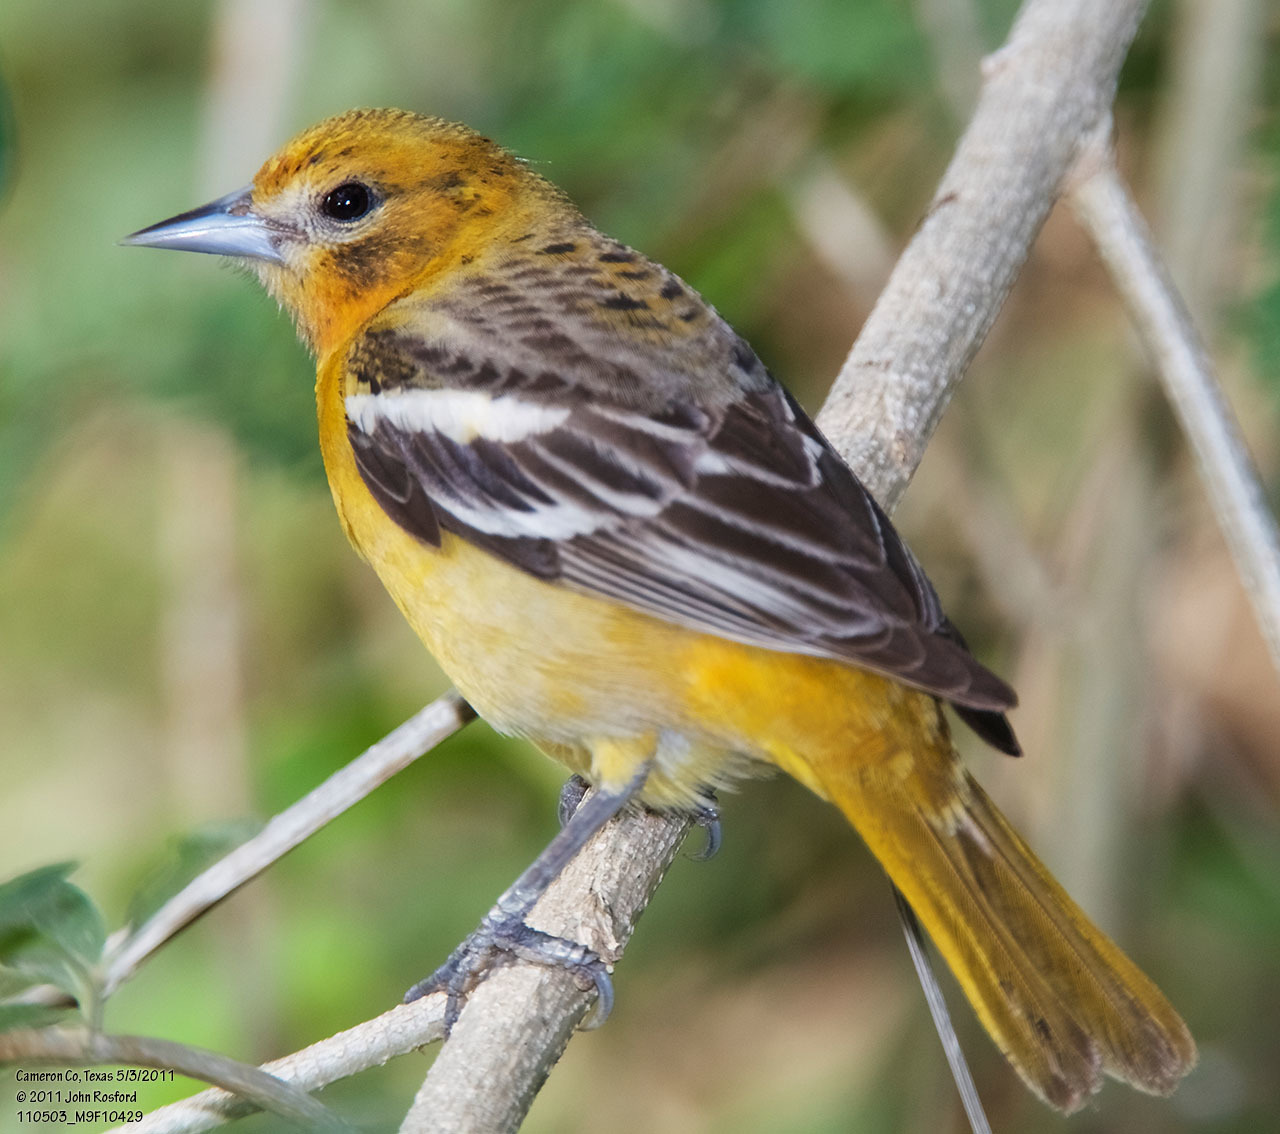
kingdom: Animalia
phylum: Chordata
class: Aves
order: Passeriformes
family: Icteridae
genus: Icterus
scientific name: Icterus galbula
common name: Baltimore oriole
